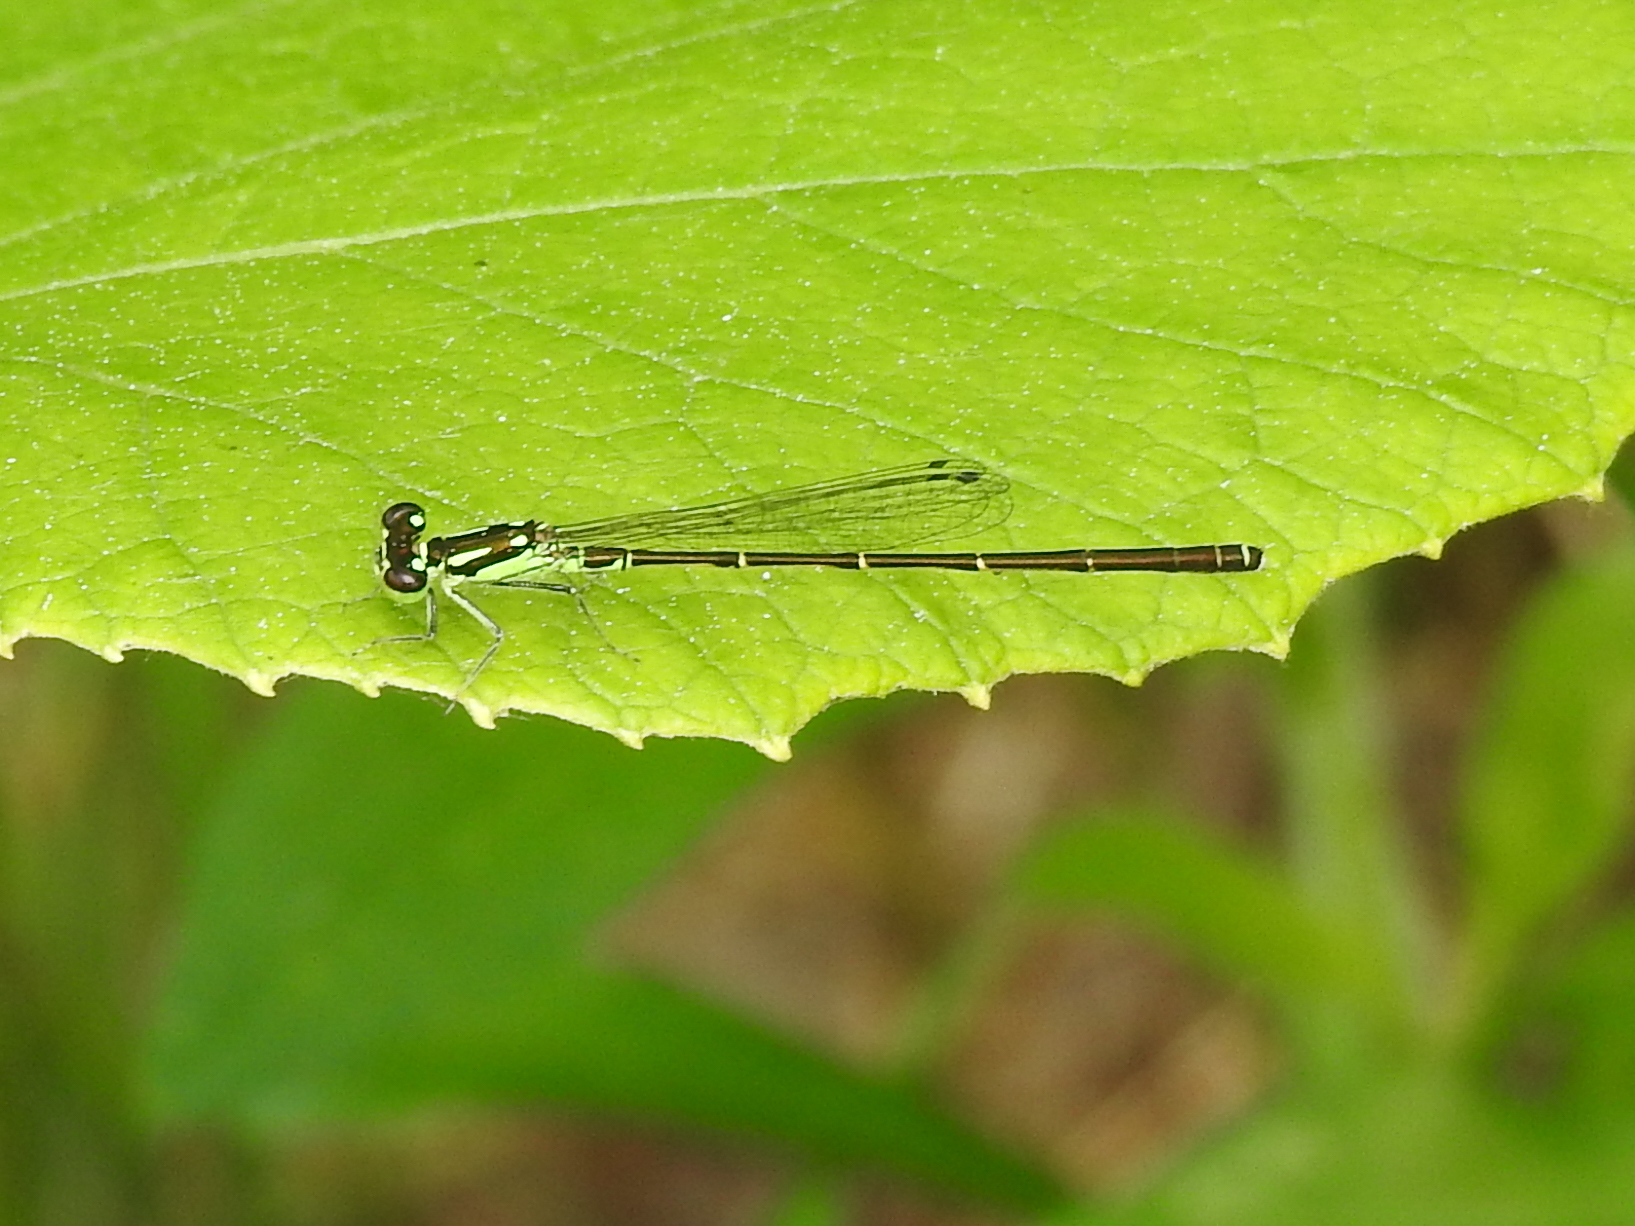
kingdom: Animalia
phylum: Arthropoda
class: Insecta
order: Odonata
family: Coenagrionidae
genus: Ischnura
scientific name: Ischnura posita
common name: Fragile forktail
